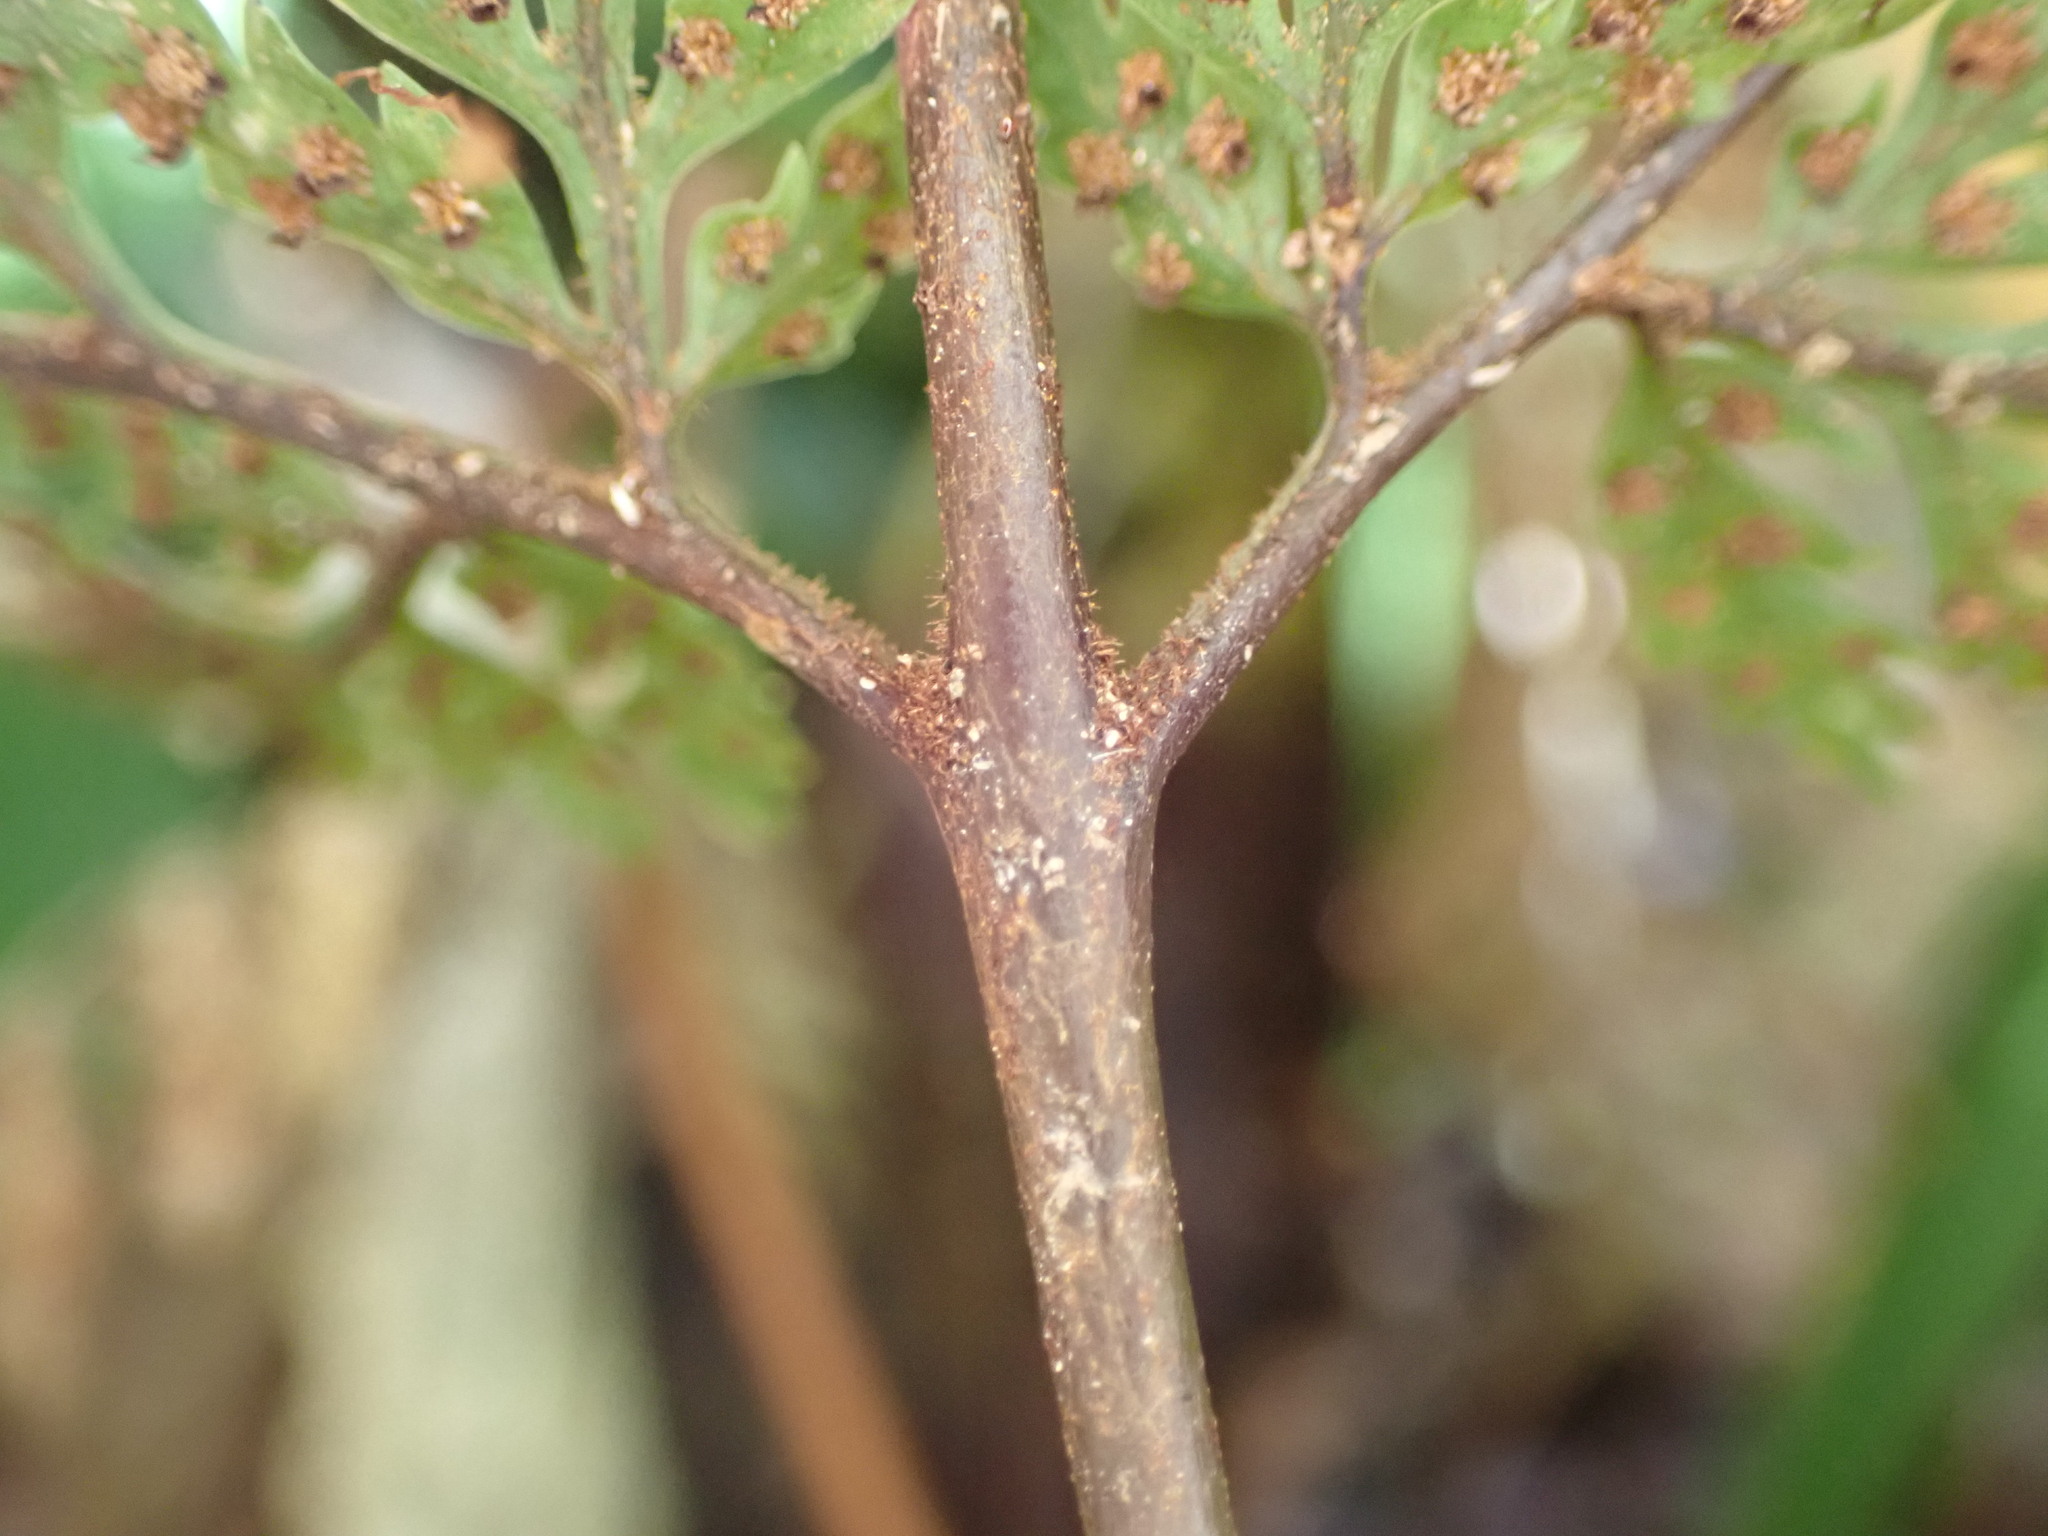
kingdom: Plantae
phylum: Tracheophyta
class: Polypodiopsida
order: Polypodiales
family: Dryopteridaceae
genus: Parapolystichum
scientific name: Parapolystichum glabellum
